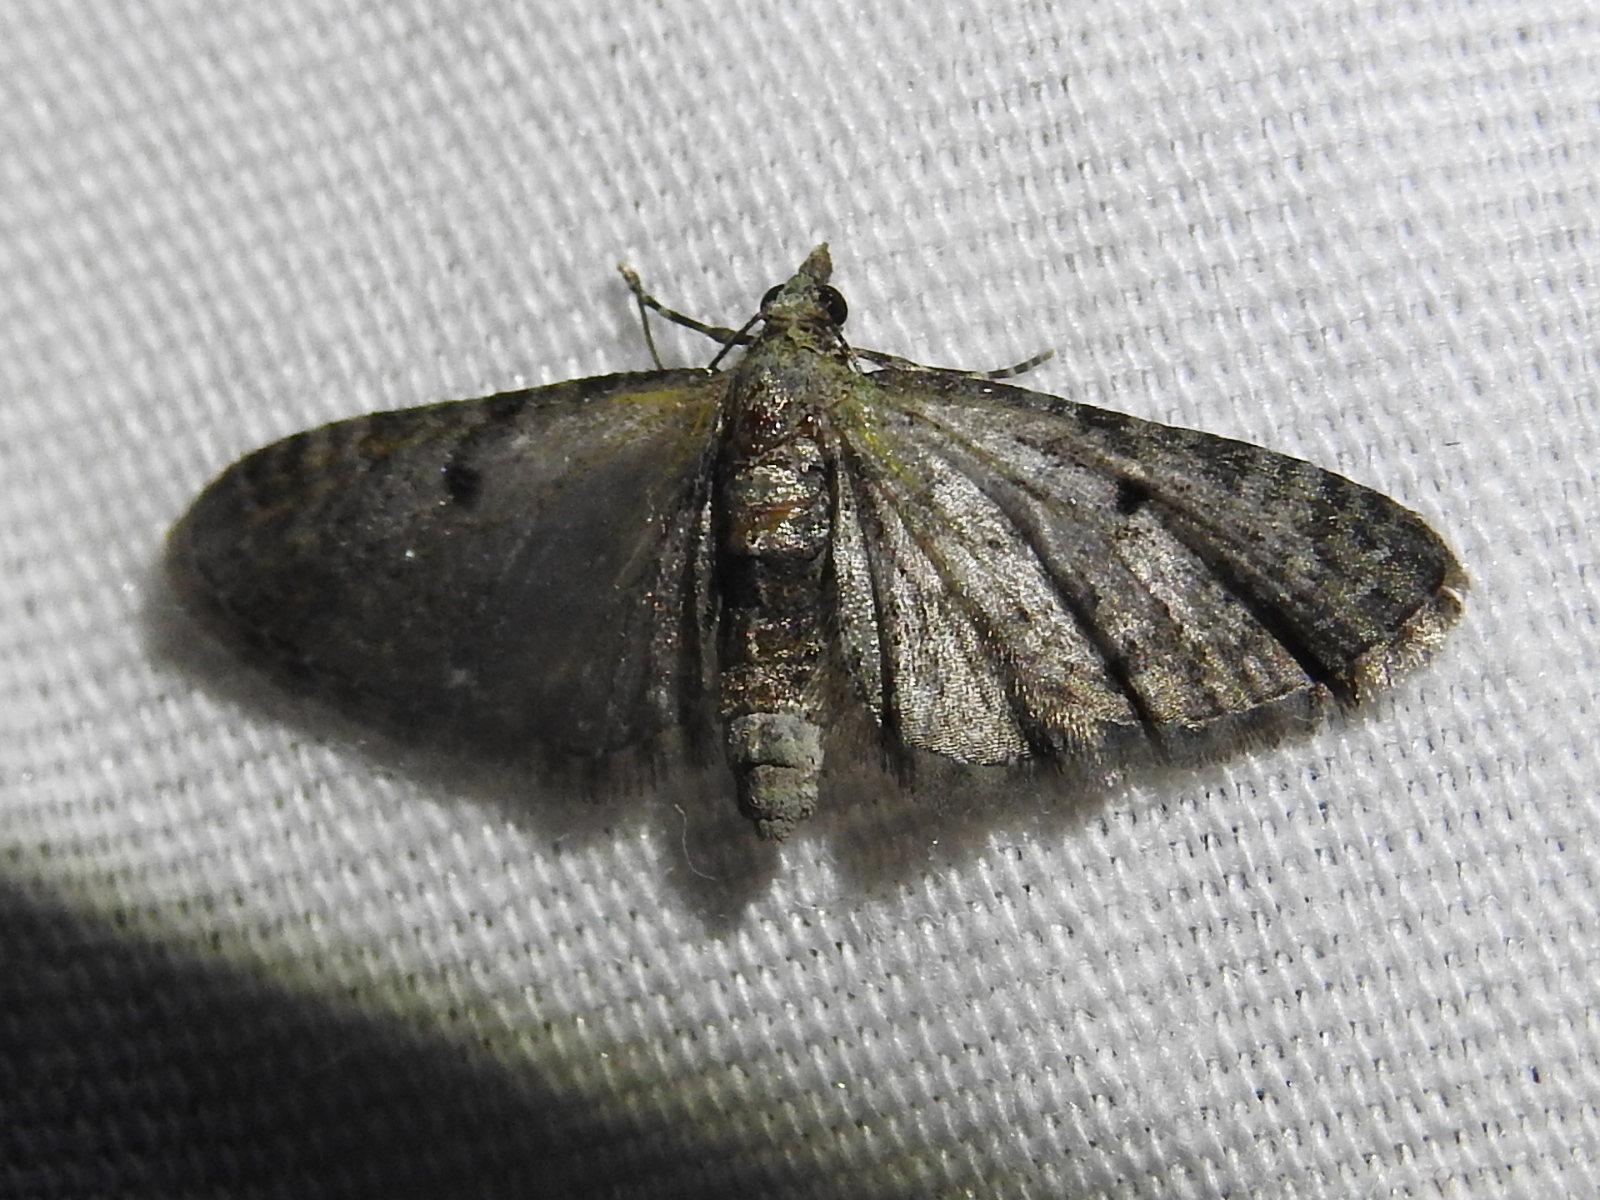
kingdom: Animalia
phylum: Arthropoda
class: Insecta
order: Lepidoptera
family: Geometridae
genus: Eupithecia
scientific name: Eupithecia miserulata
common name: Common eupithecia
